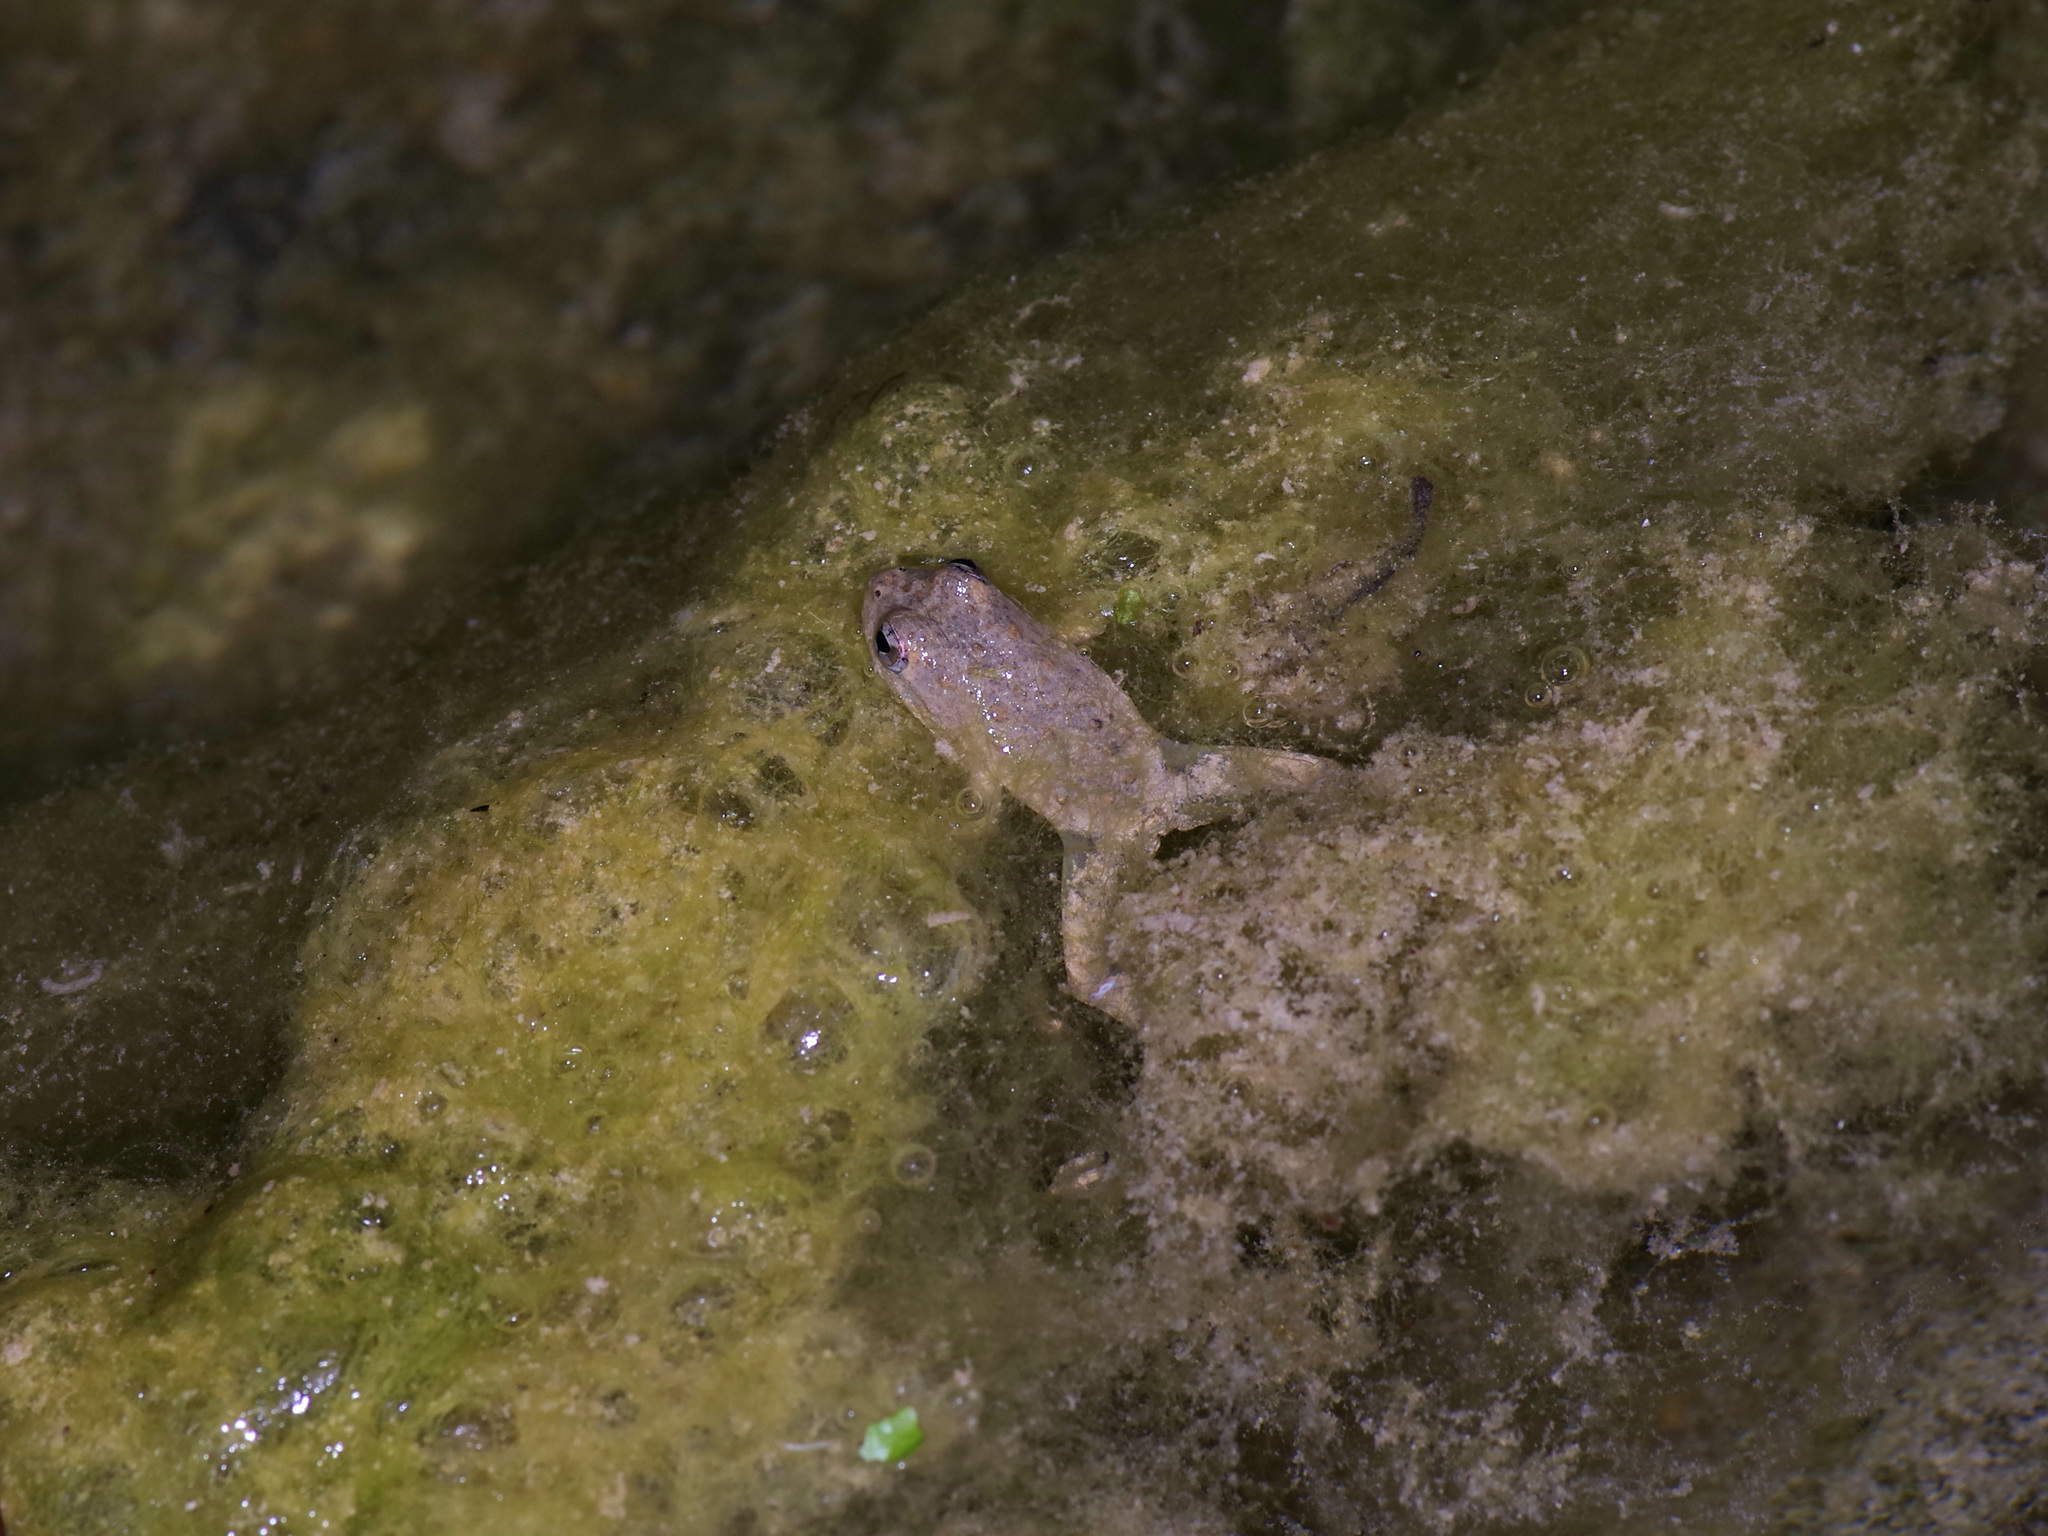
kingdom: Animalia
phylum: Chordata
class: Amphibia
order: Anura
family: Hylidae
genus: Acris
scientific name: Acris blanchardi
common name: Blanchard's cricket frog
